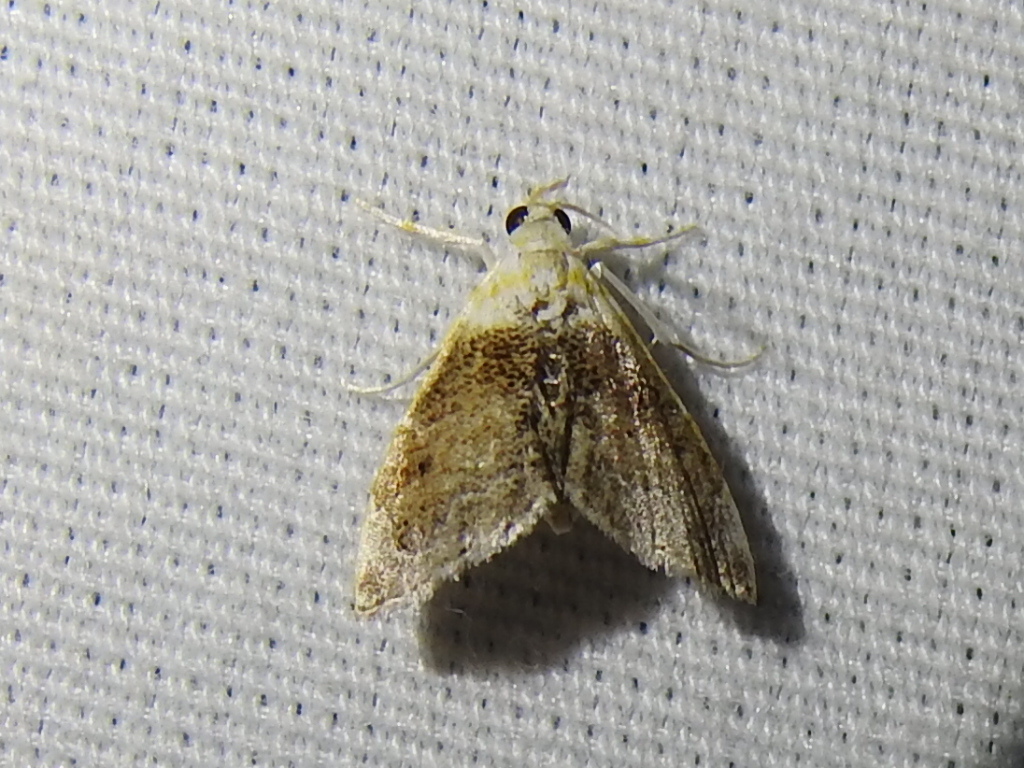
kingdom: Animalia
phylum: Arthropoda
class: Insecta
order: Lepidoptera
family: Crambidae
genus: Lipocosma
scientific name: Lipocosma polingi
